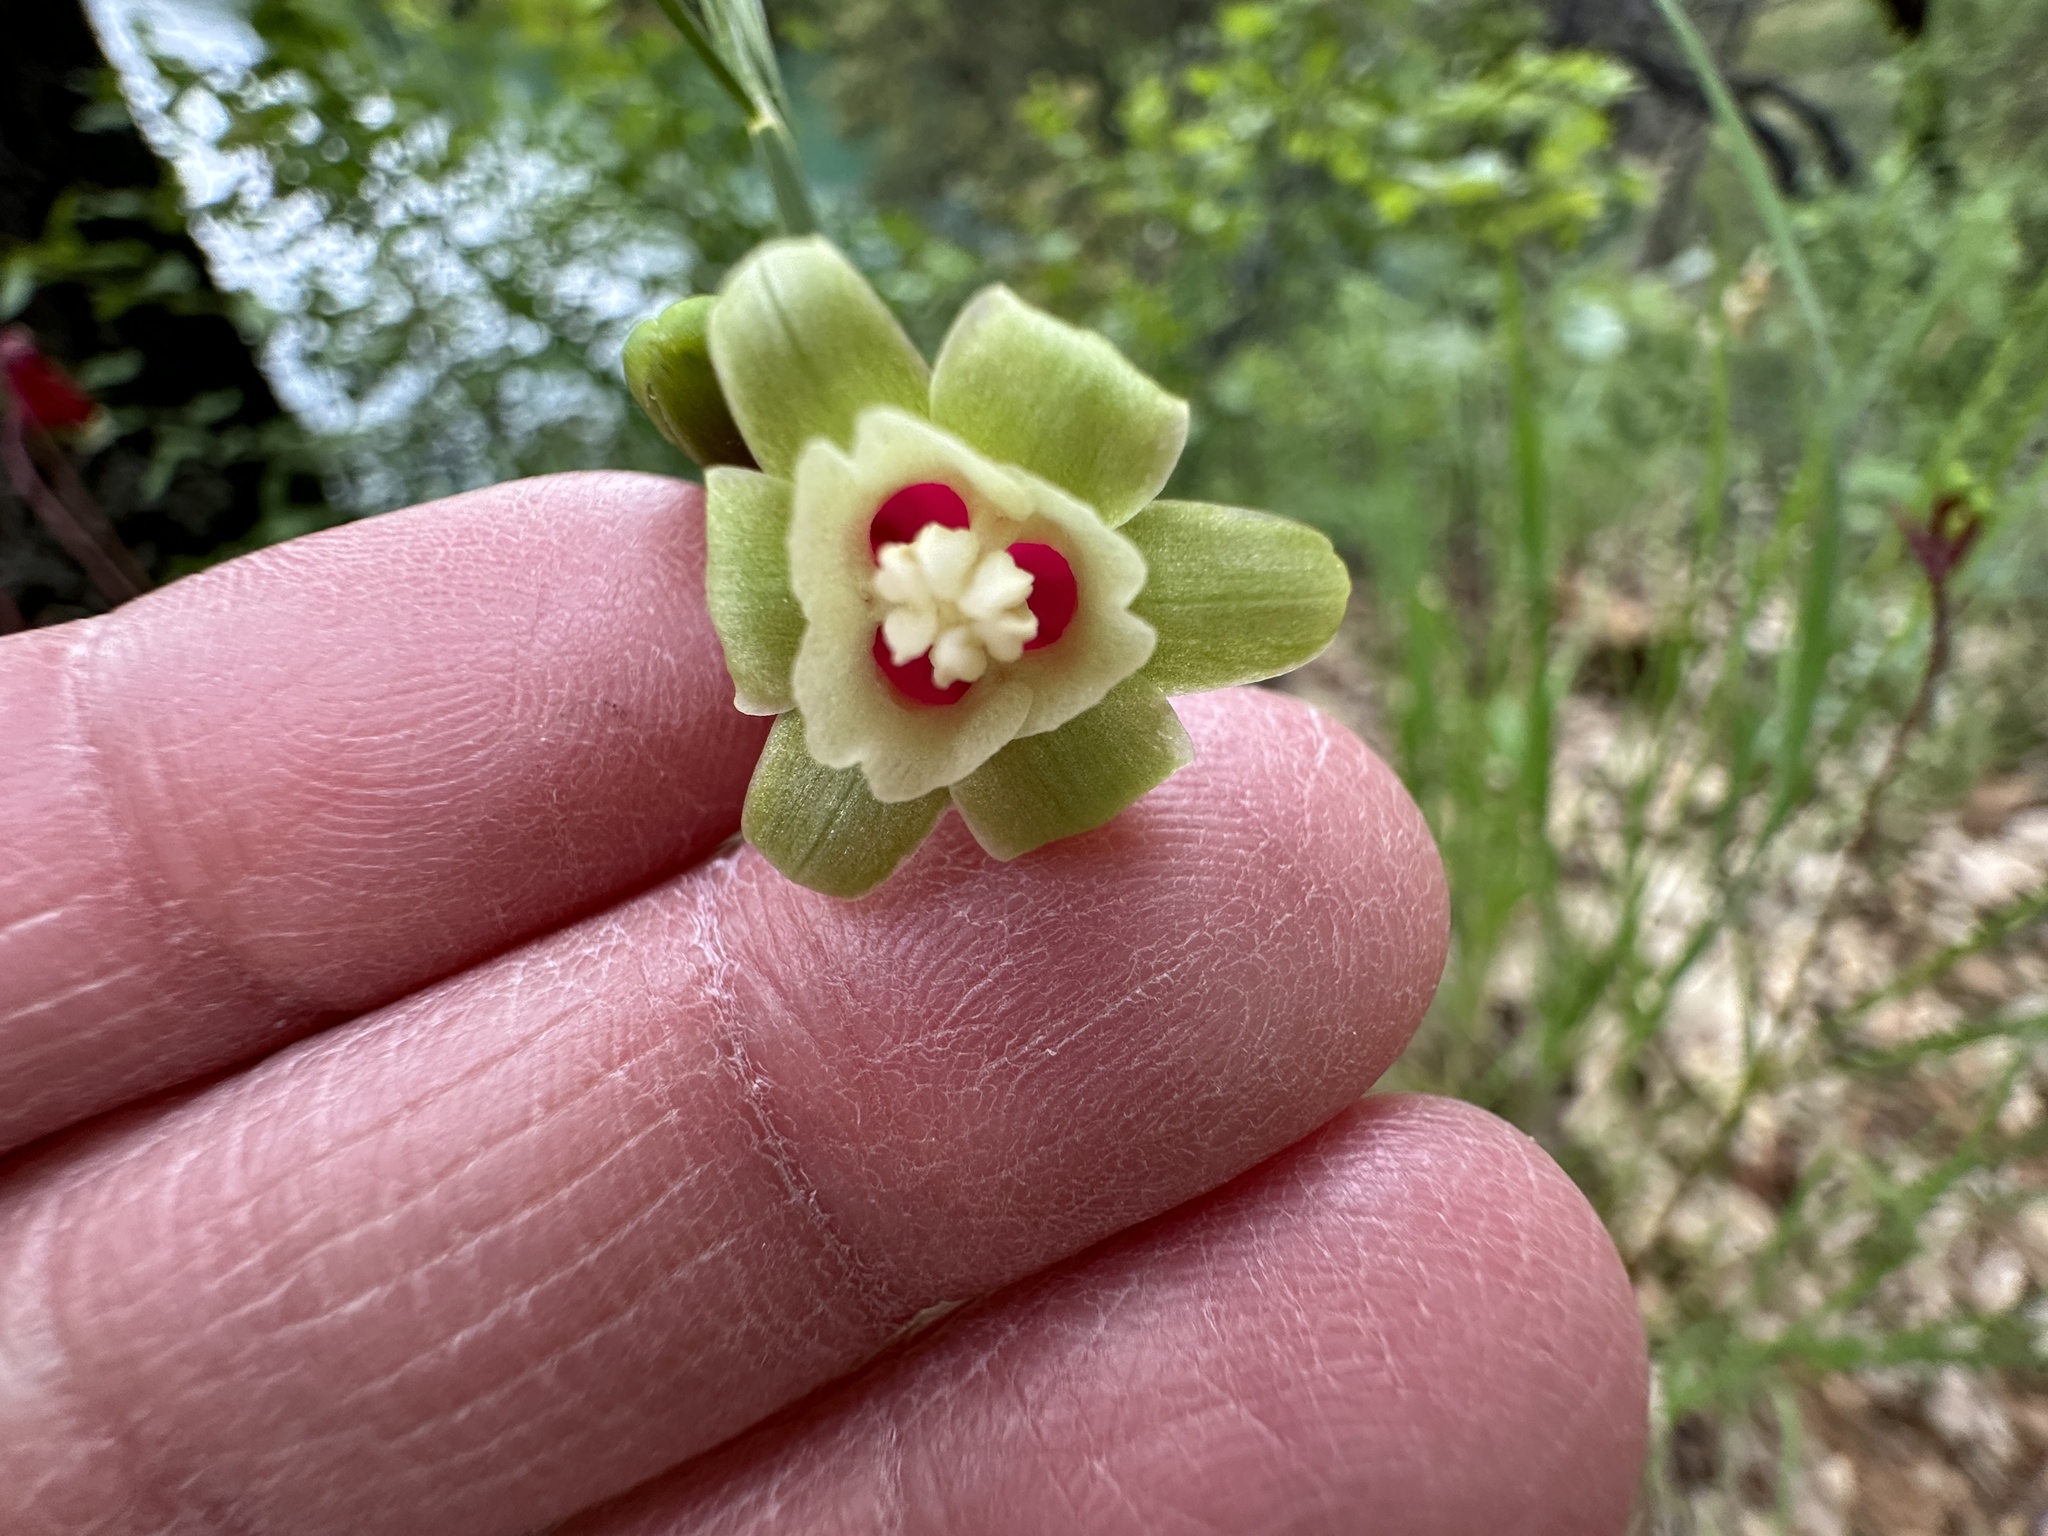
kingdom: Plantae
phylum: Tracheophyta
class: Liliopsida
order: Asparagales
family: Asparagaceae
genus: Dichelostemma
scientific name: Dichelostemma ida-maia
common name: Firecracker-flower
